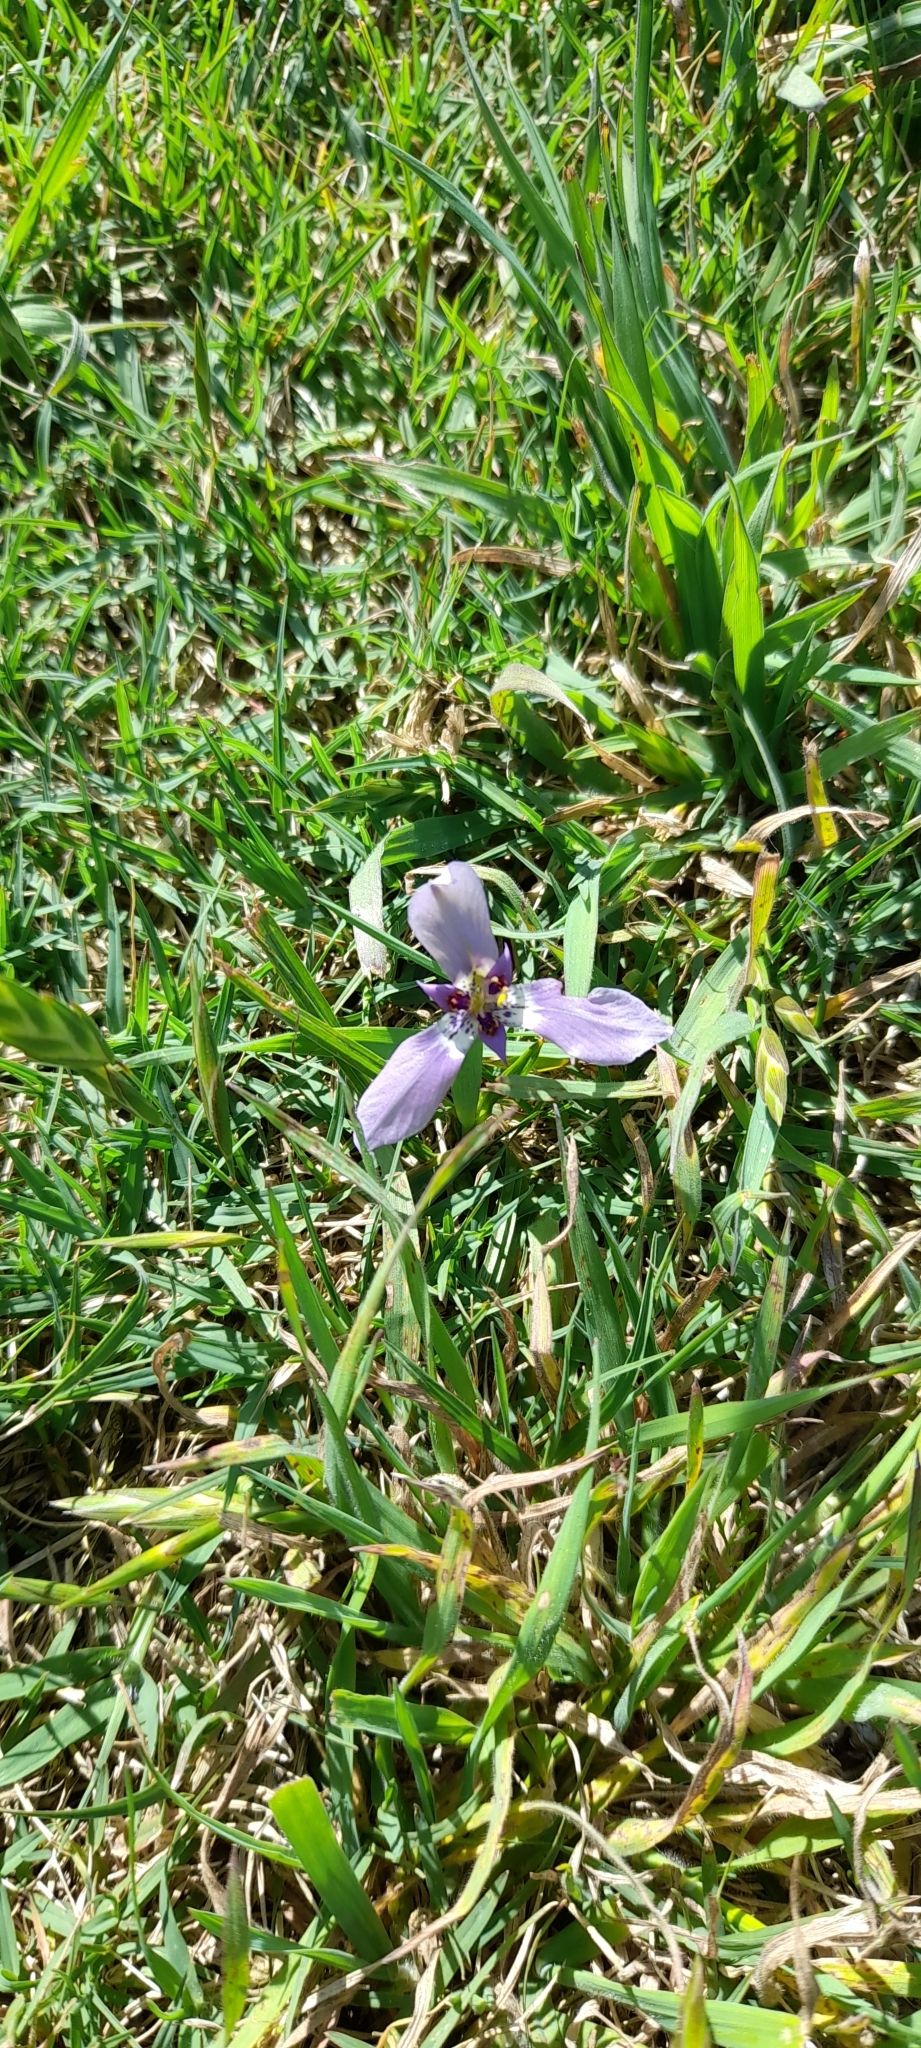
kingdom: Plantae
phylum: Tracheophyta
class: Liliopsida
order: Asparagales
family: Iridaceae
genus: Herbertia
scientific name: Herbertia lahue
